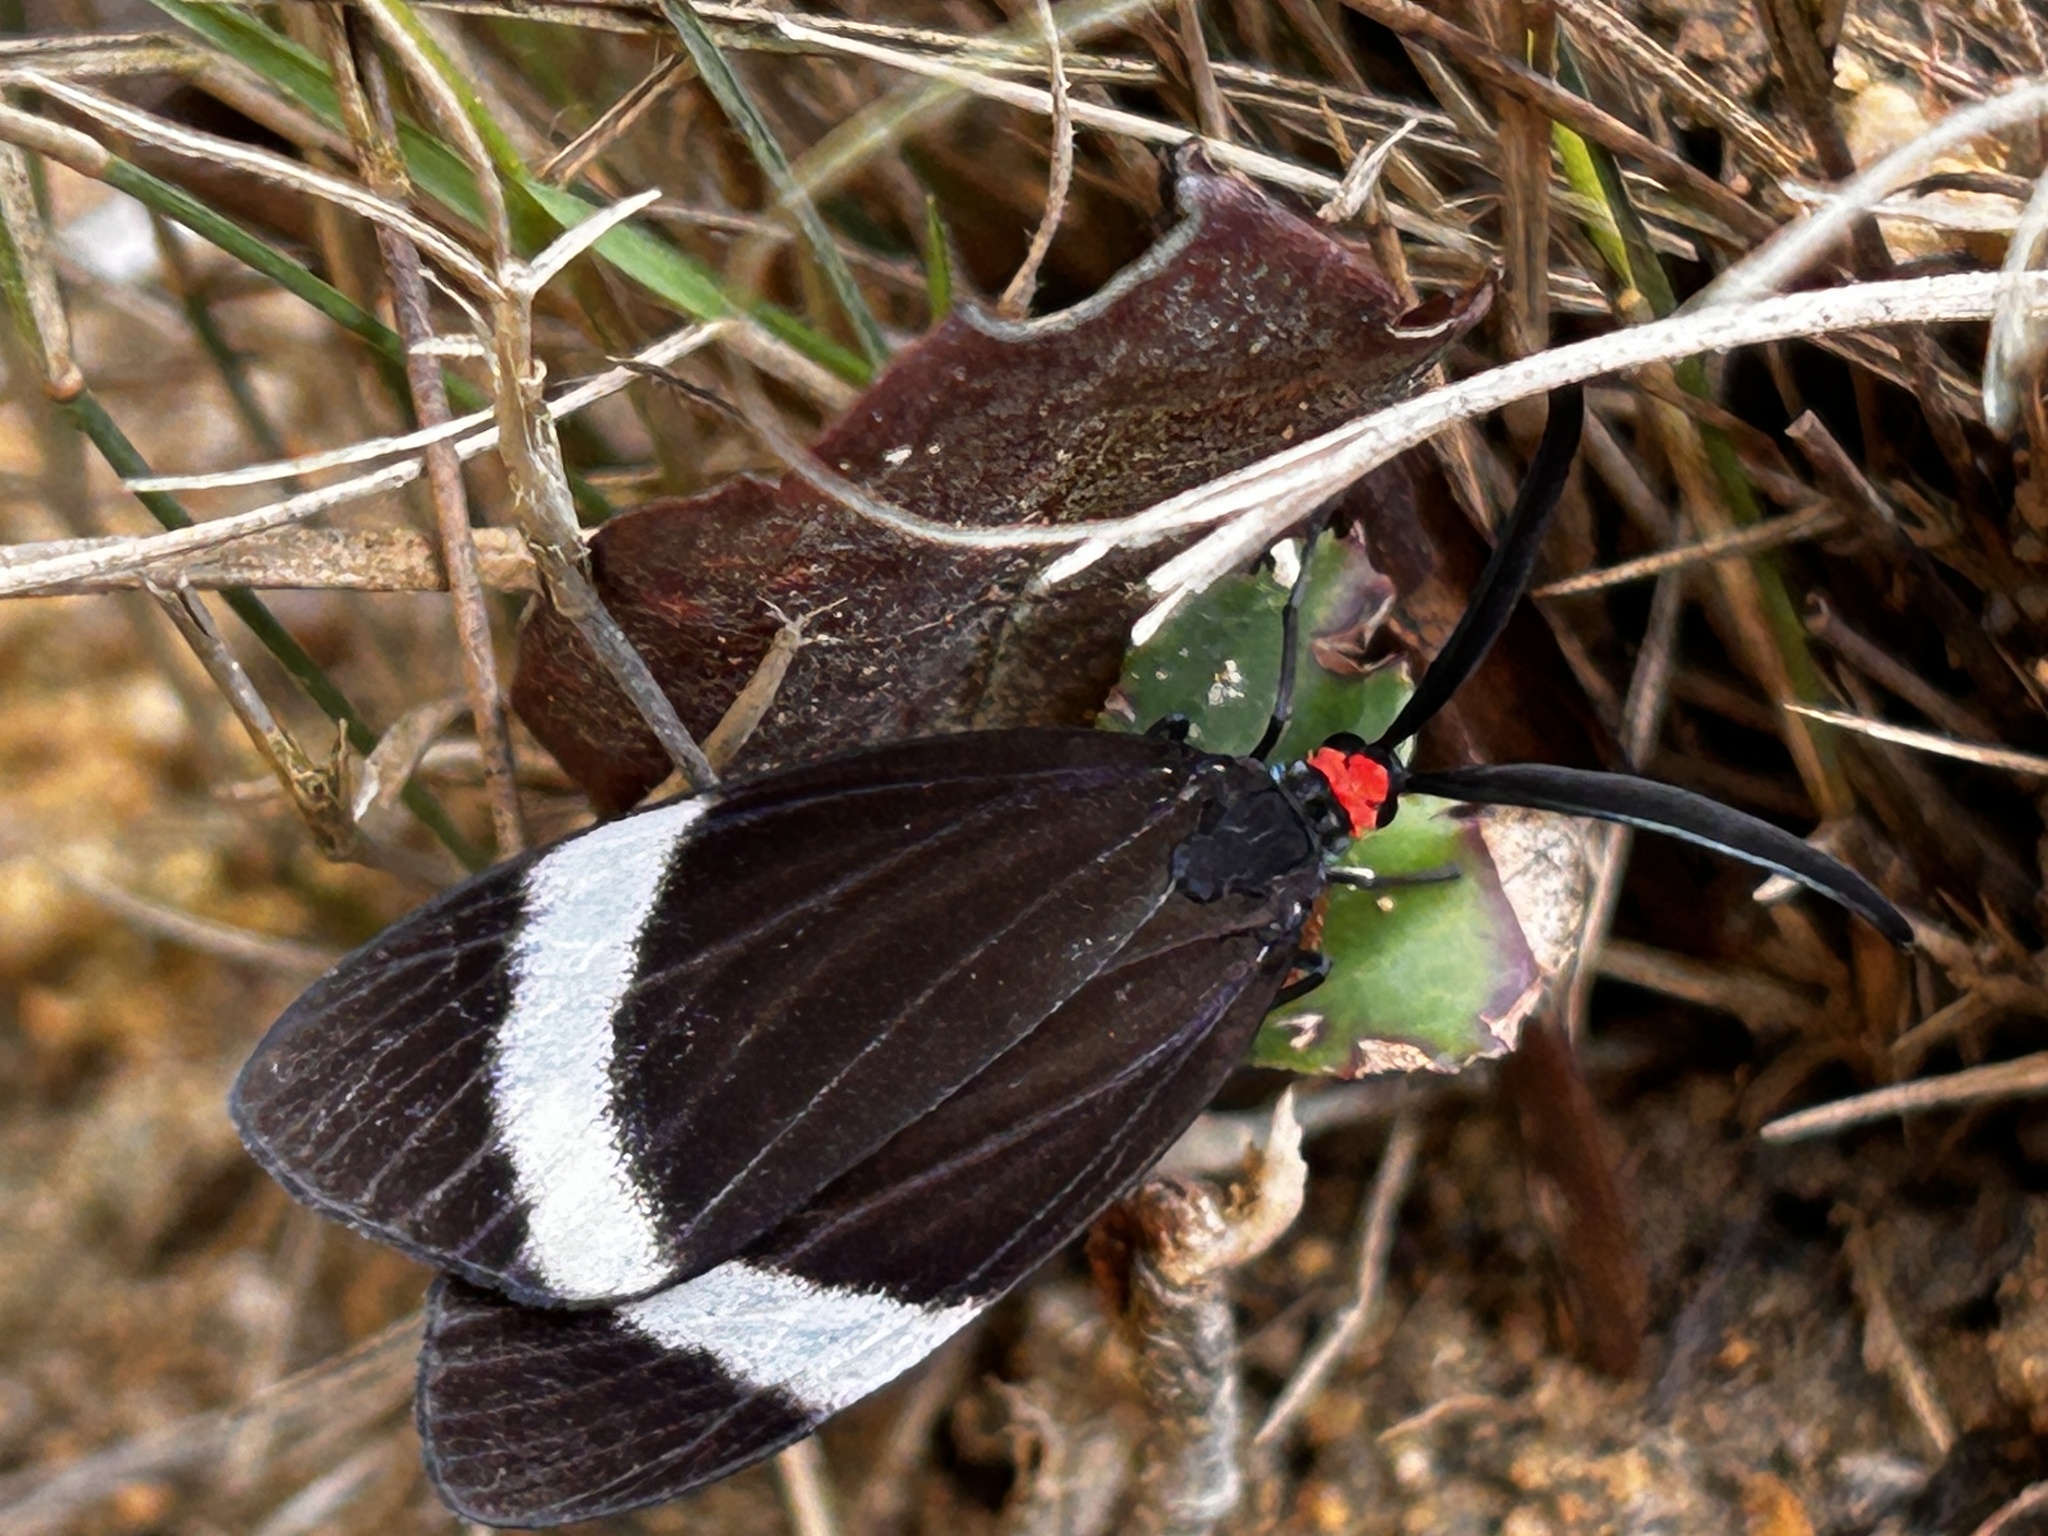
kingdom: Animalia
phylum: Arthropoda
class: Insecta
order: Lepidoptera
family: Zygaenidae
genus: Pidorus
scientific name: Pidorus glaucopis
